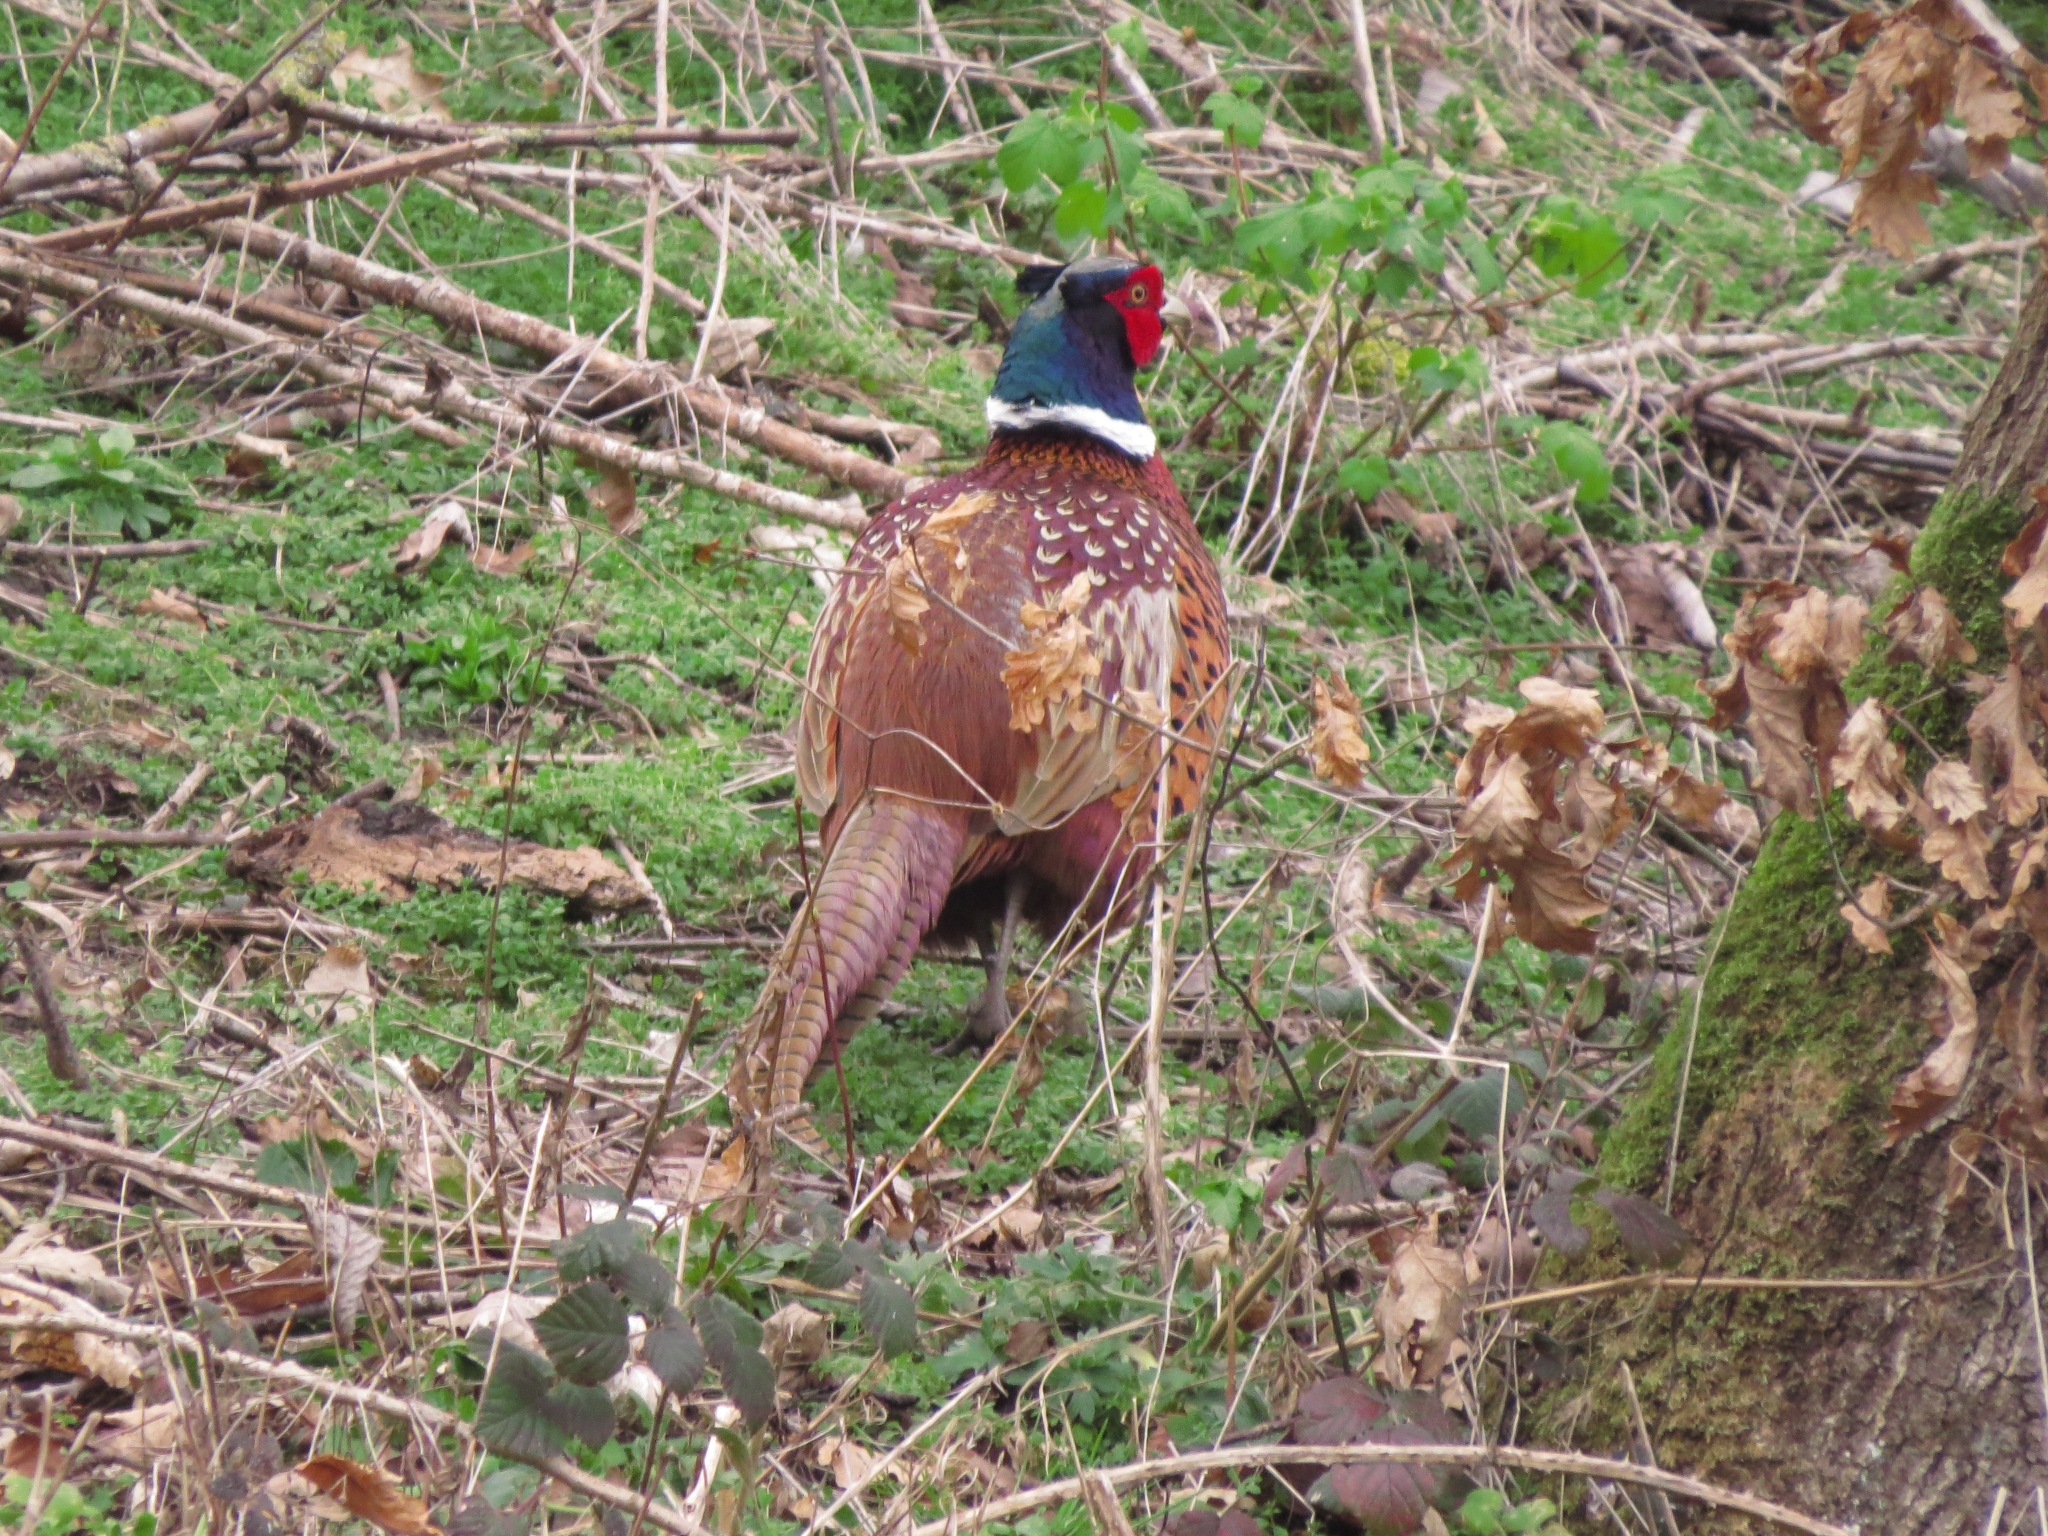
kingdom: Animalia
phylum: Chordata
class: Aves
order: Galliformes
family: Phasianidae
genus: Phasianus
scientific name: Phasianus colchicus
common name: Common pheasant
